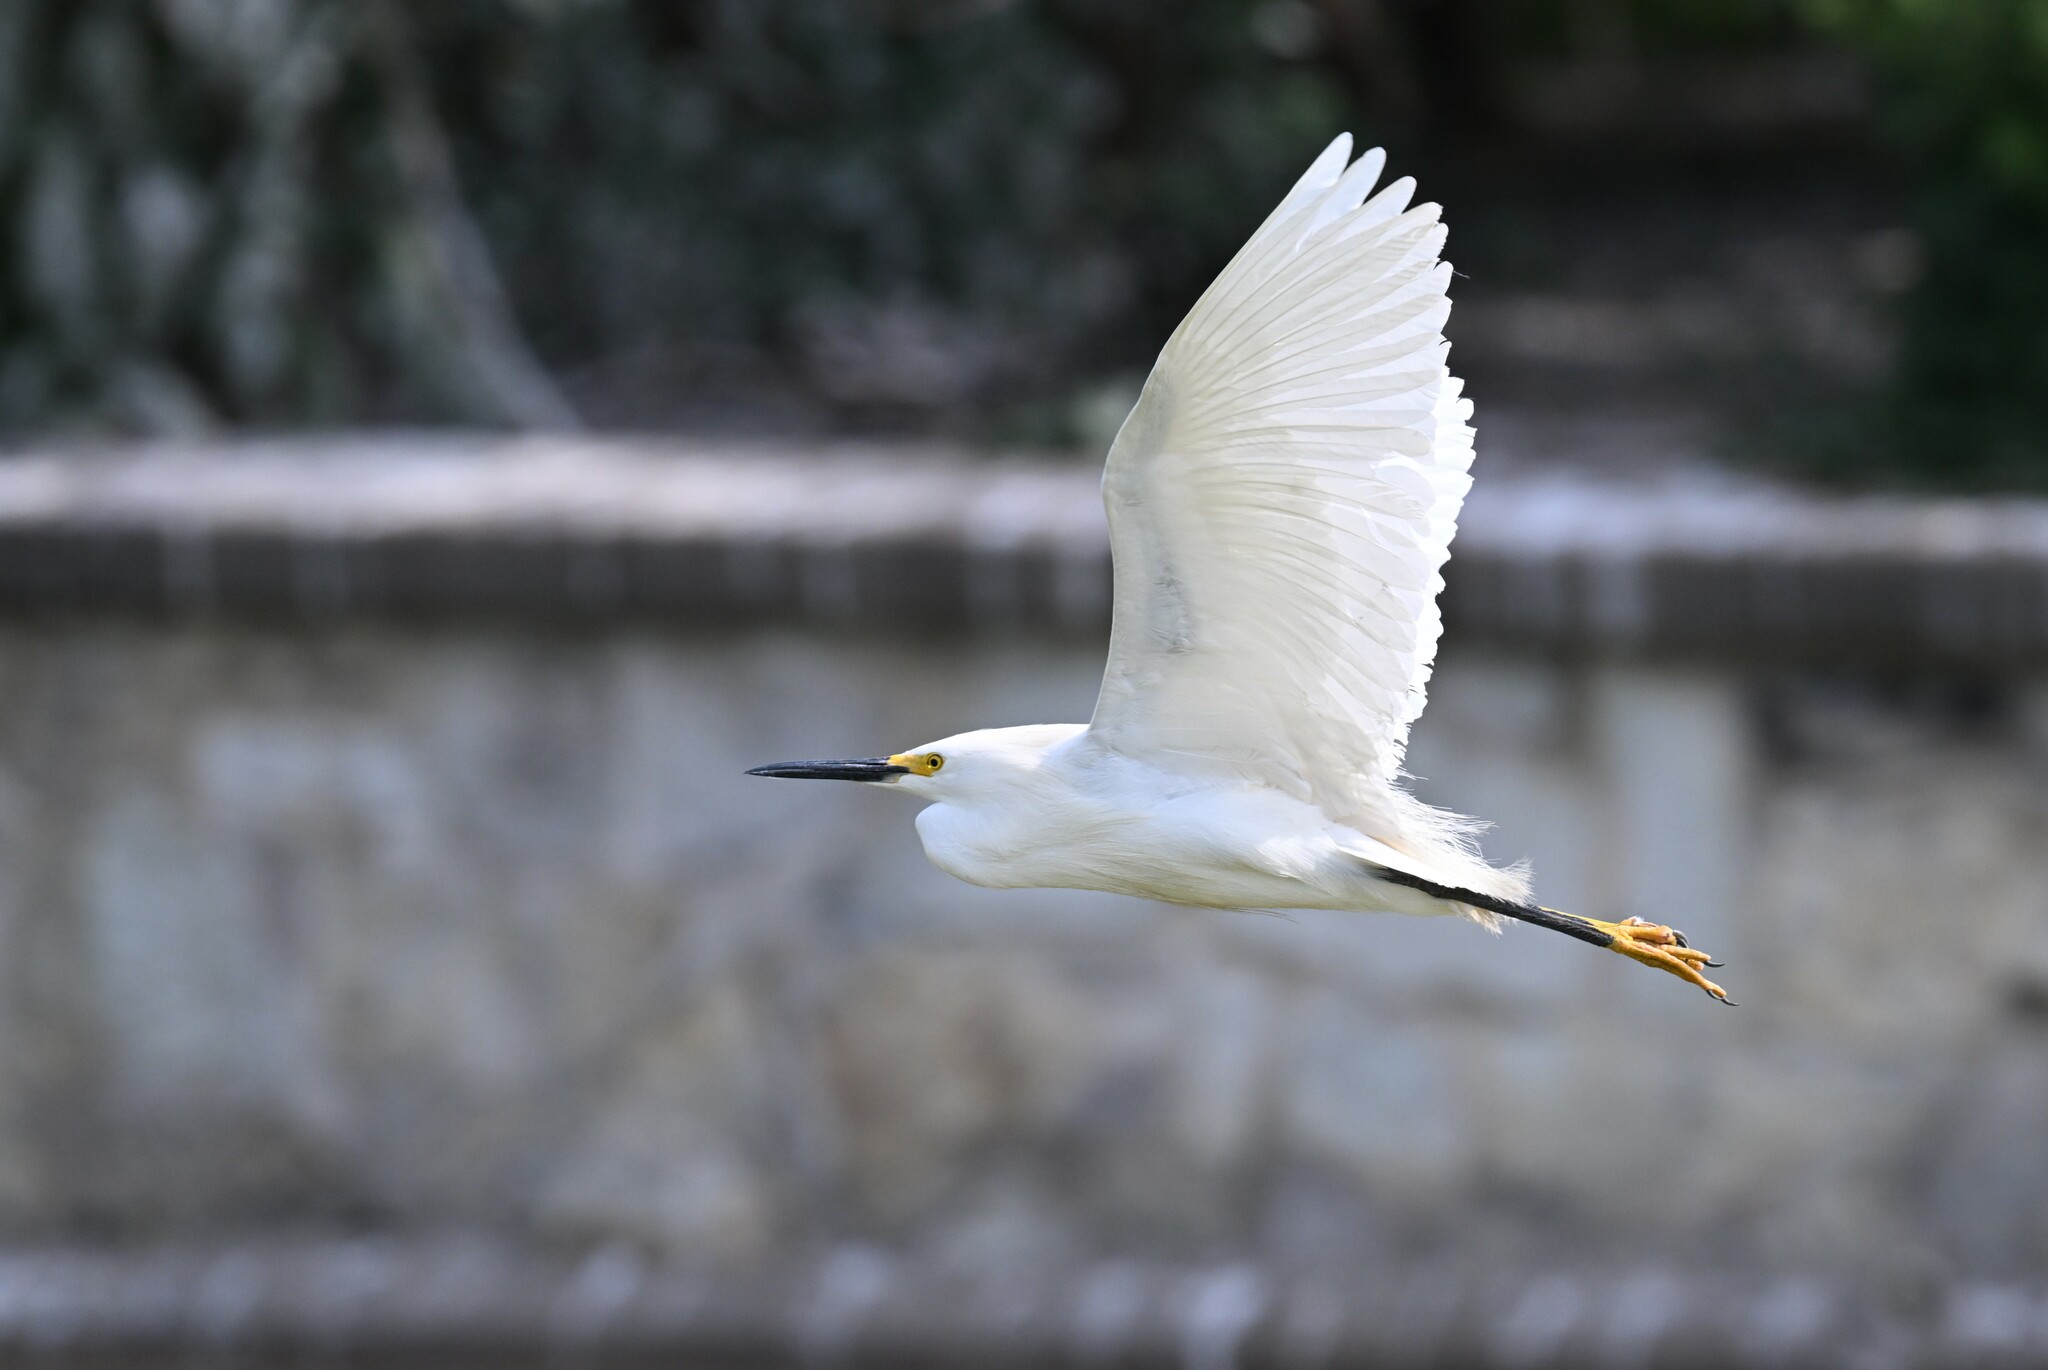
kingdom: Animalia
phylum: Chordata
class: Aves
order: Pelecaniformes
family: Ardeidae
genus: Egretta
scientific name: Egretta thula
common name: Snowy egret
